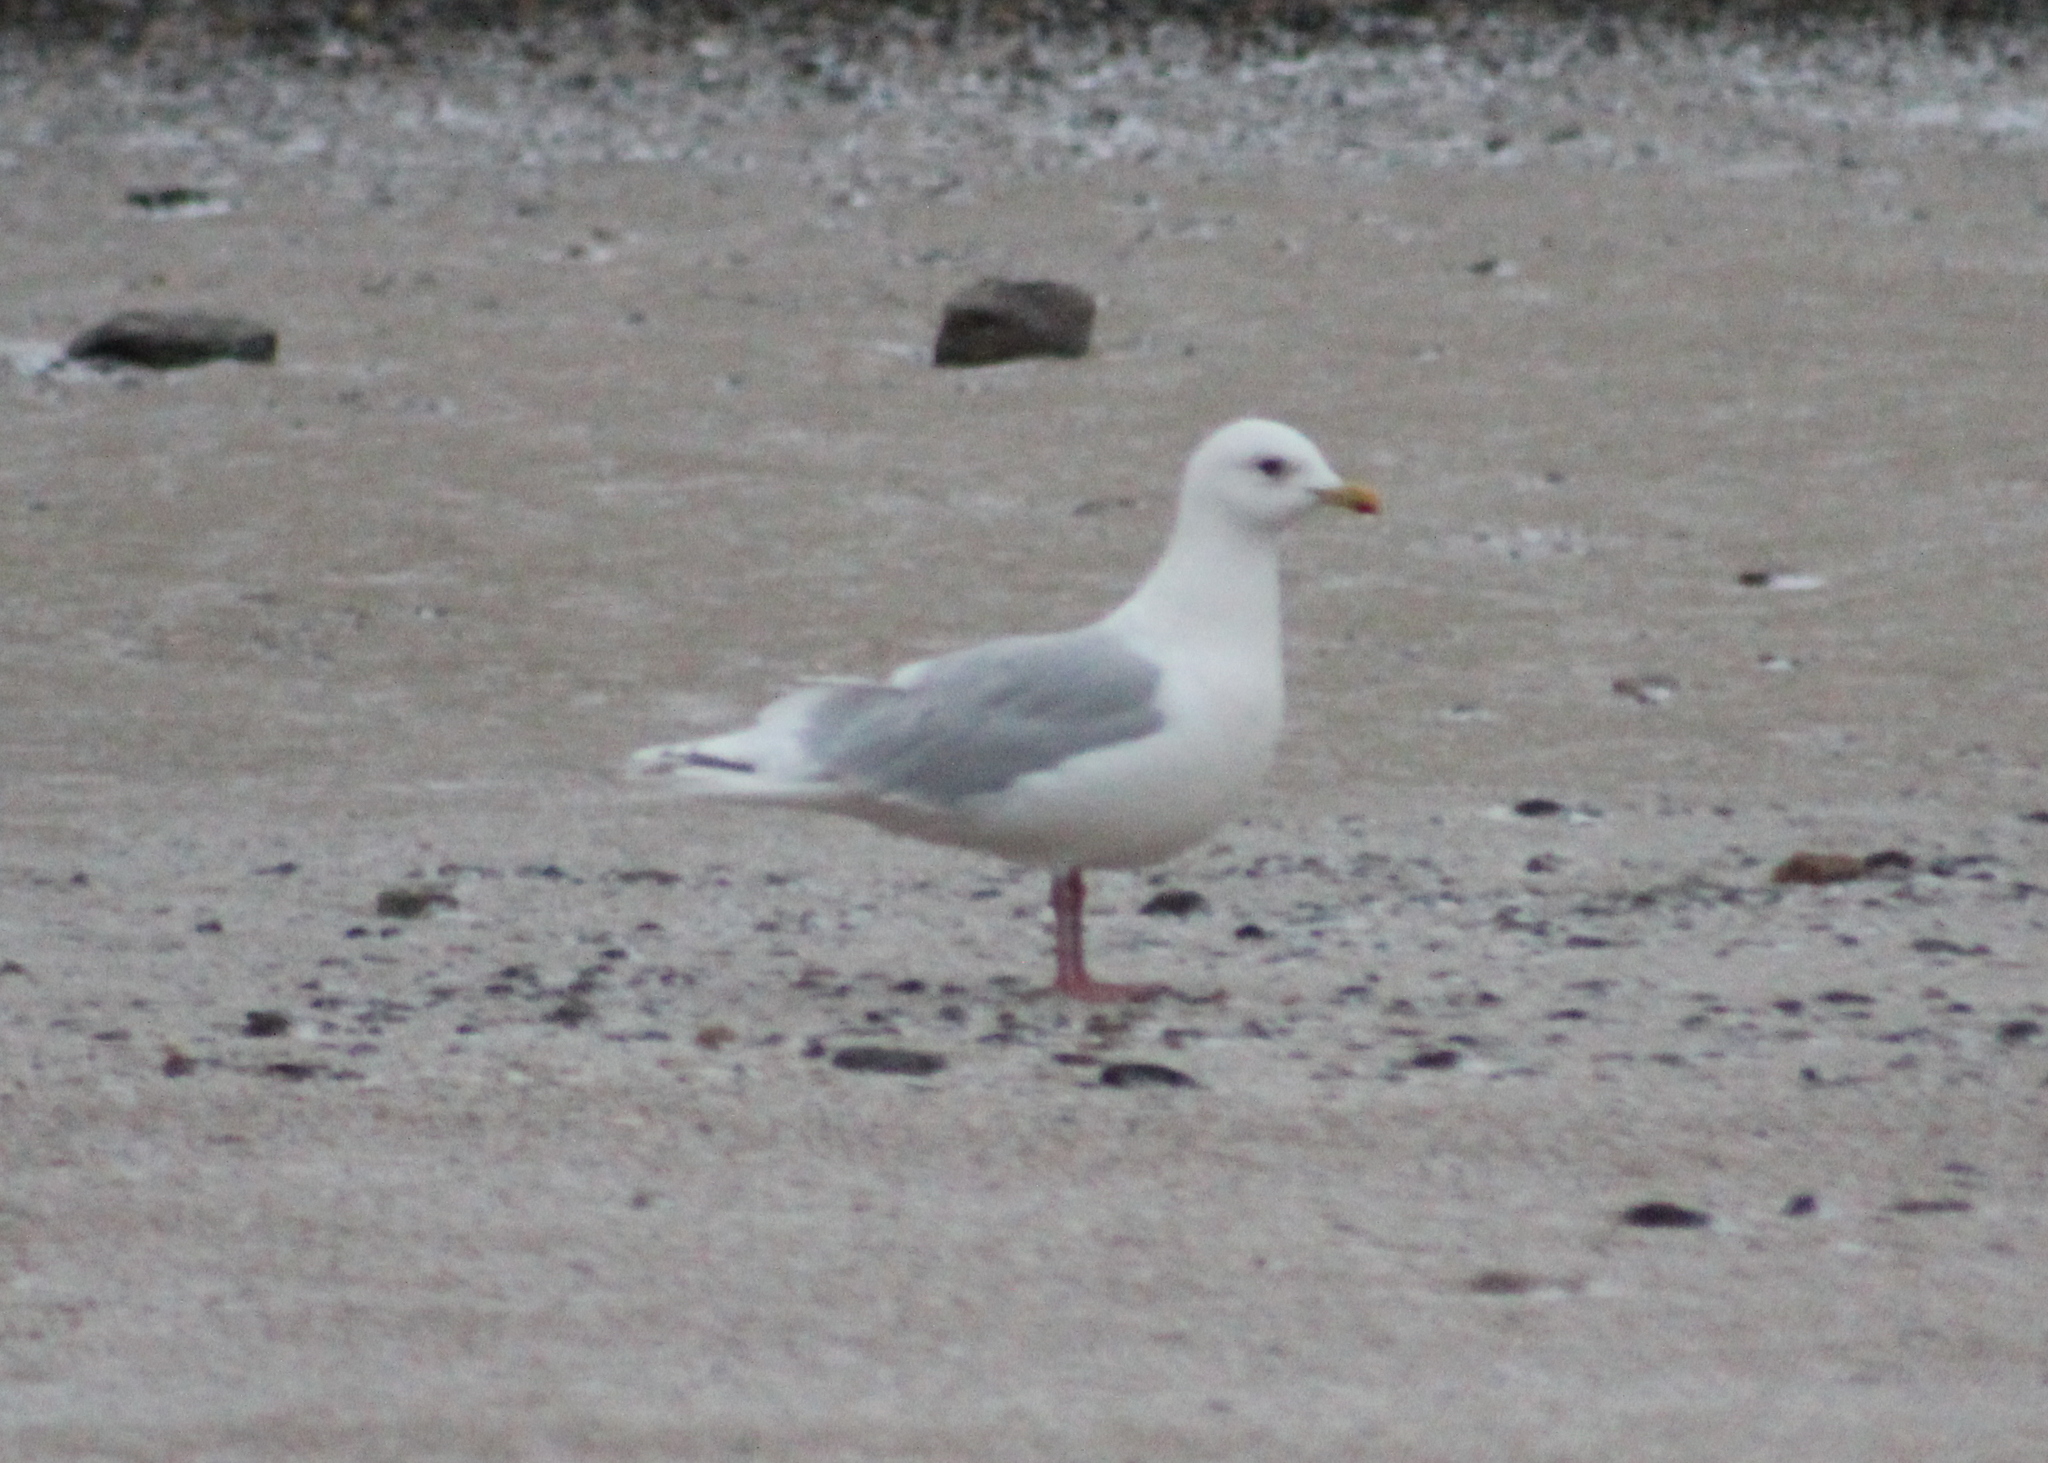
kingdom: Animalia
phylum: Chordata
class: Aves
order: Charadriiformes
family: Laridae
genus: Larus
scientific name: Larus glaucoides
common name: Iceland gull
